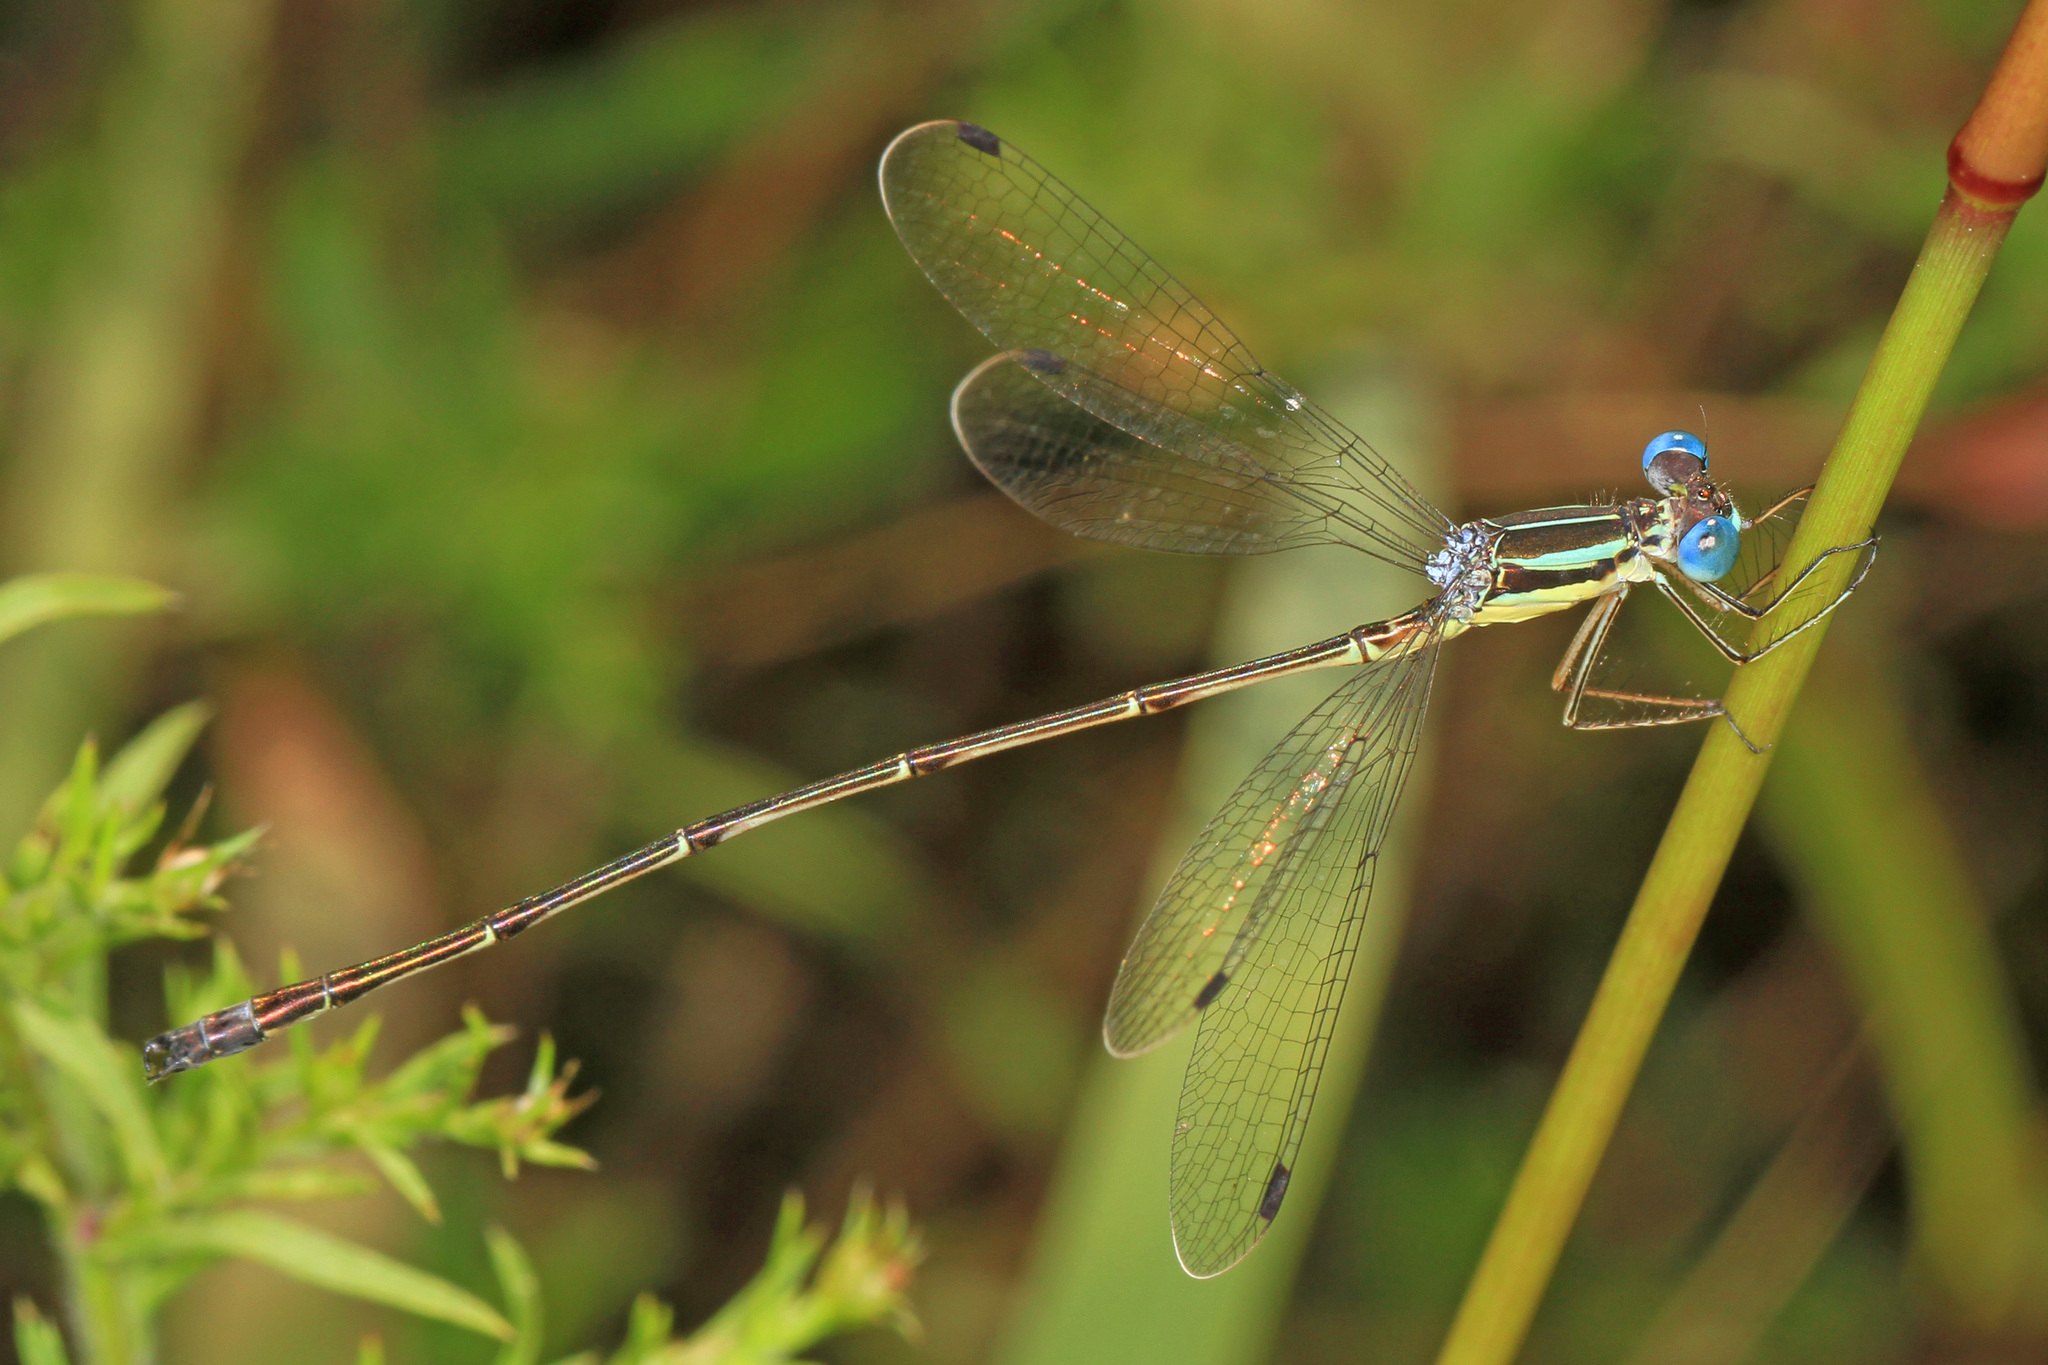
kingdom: Animalia
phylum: Arthropoda
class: Insecta
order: Odonata
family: Lestidae
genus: Lestes
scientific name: Lestes rectangularis
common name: Slender spreadwing
